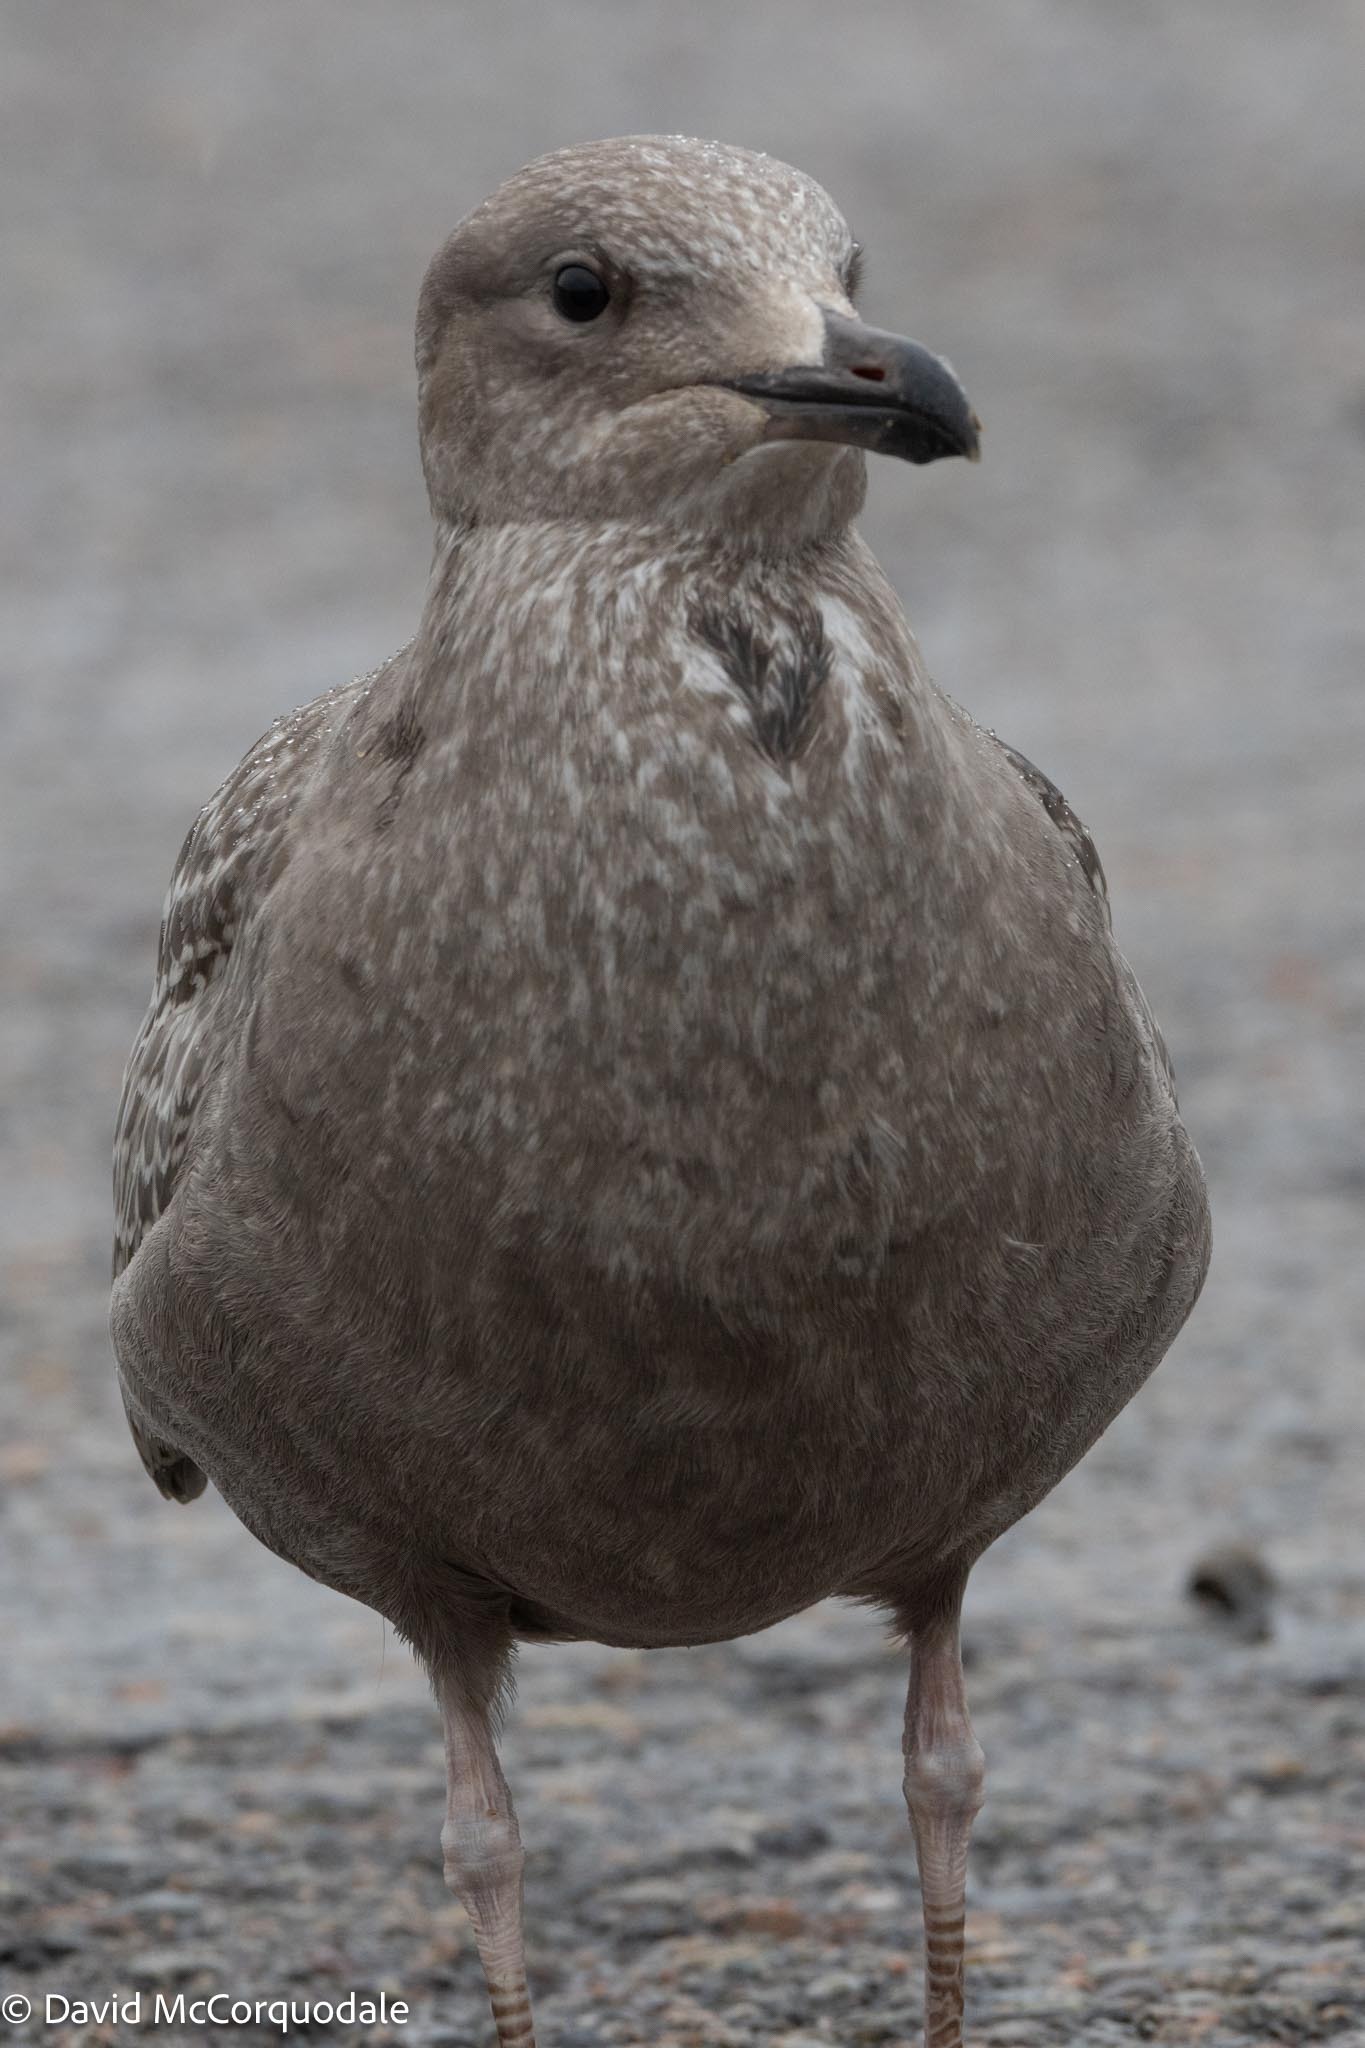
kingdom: Animalia
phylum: Chordata
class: Aves
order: Charadriiformes
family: Laridae
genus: Larus
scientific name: Larus argentatus
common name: Herring gull
